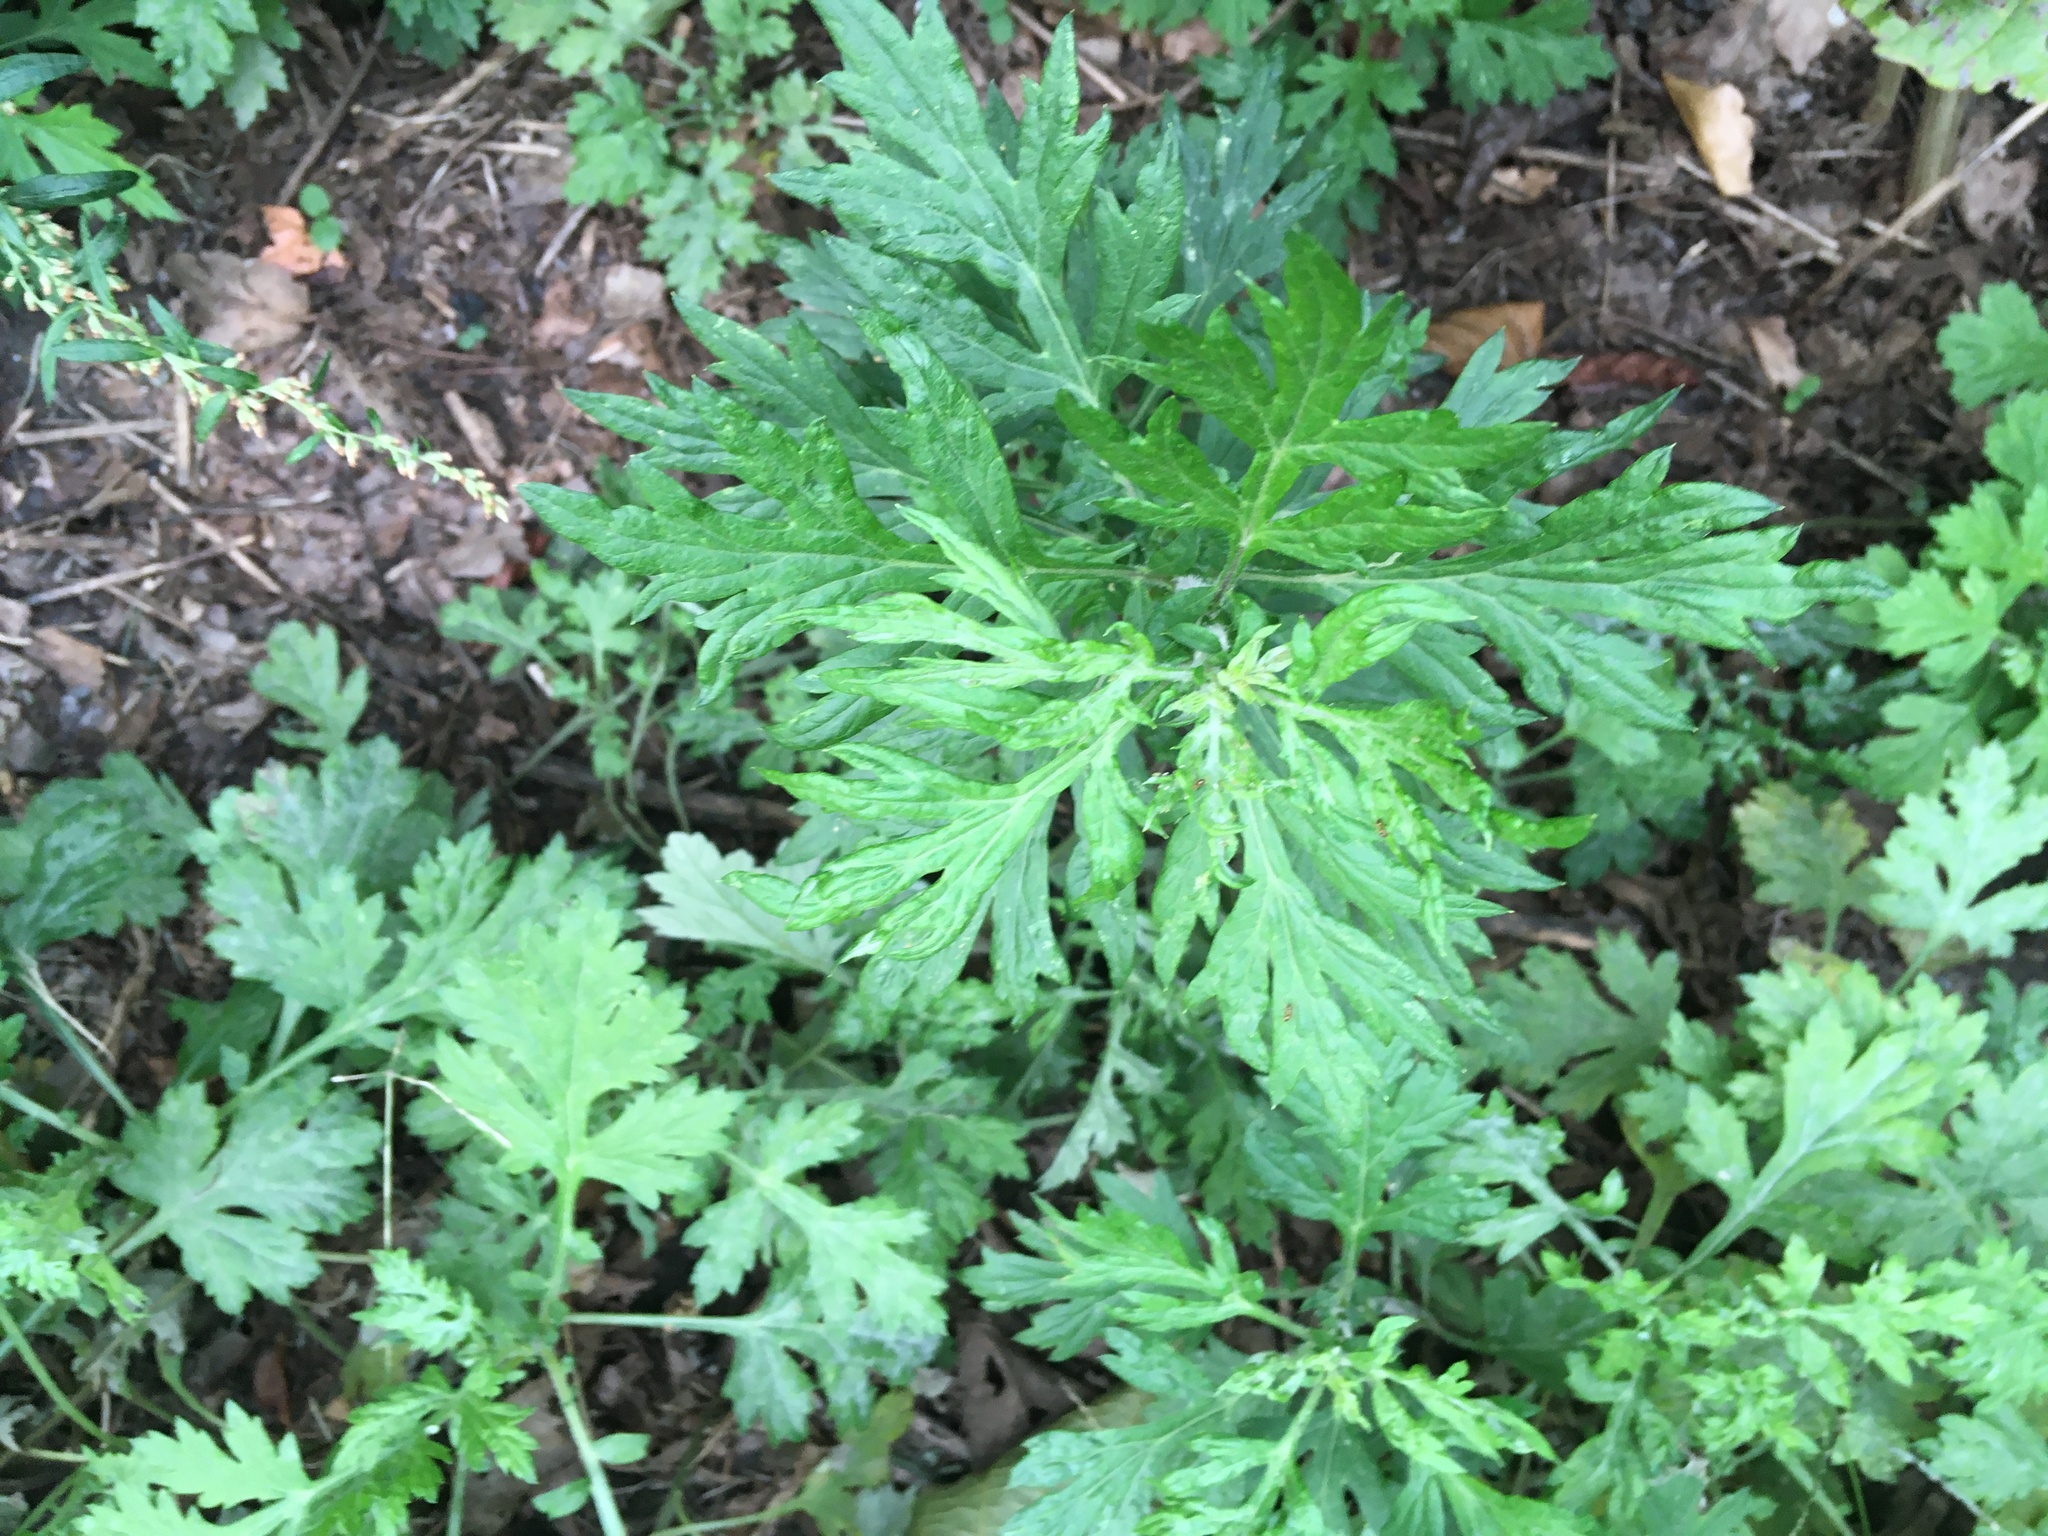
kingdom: Plantae
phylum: Tracheophyta
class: Magnoliopsida
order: Asterales
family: Asteraceae
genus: Artemisia
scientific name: Artemisia vulgaris
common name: Mugwort
